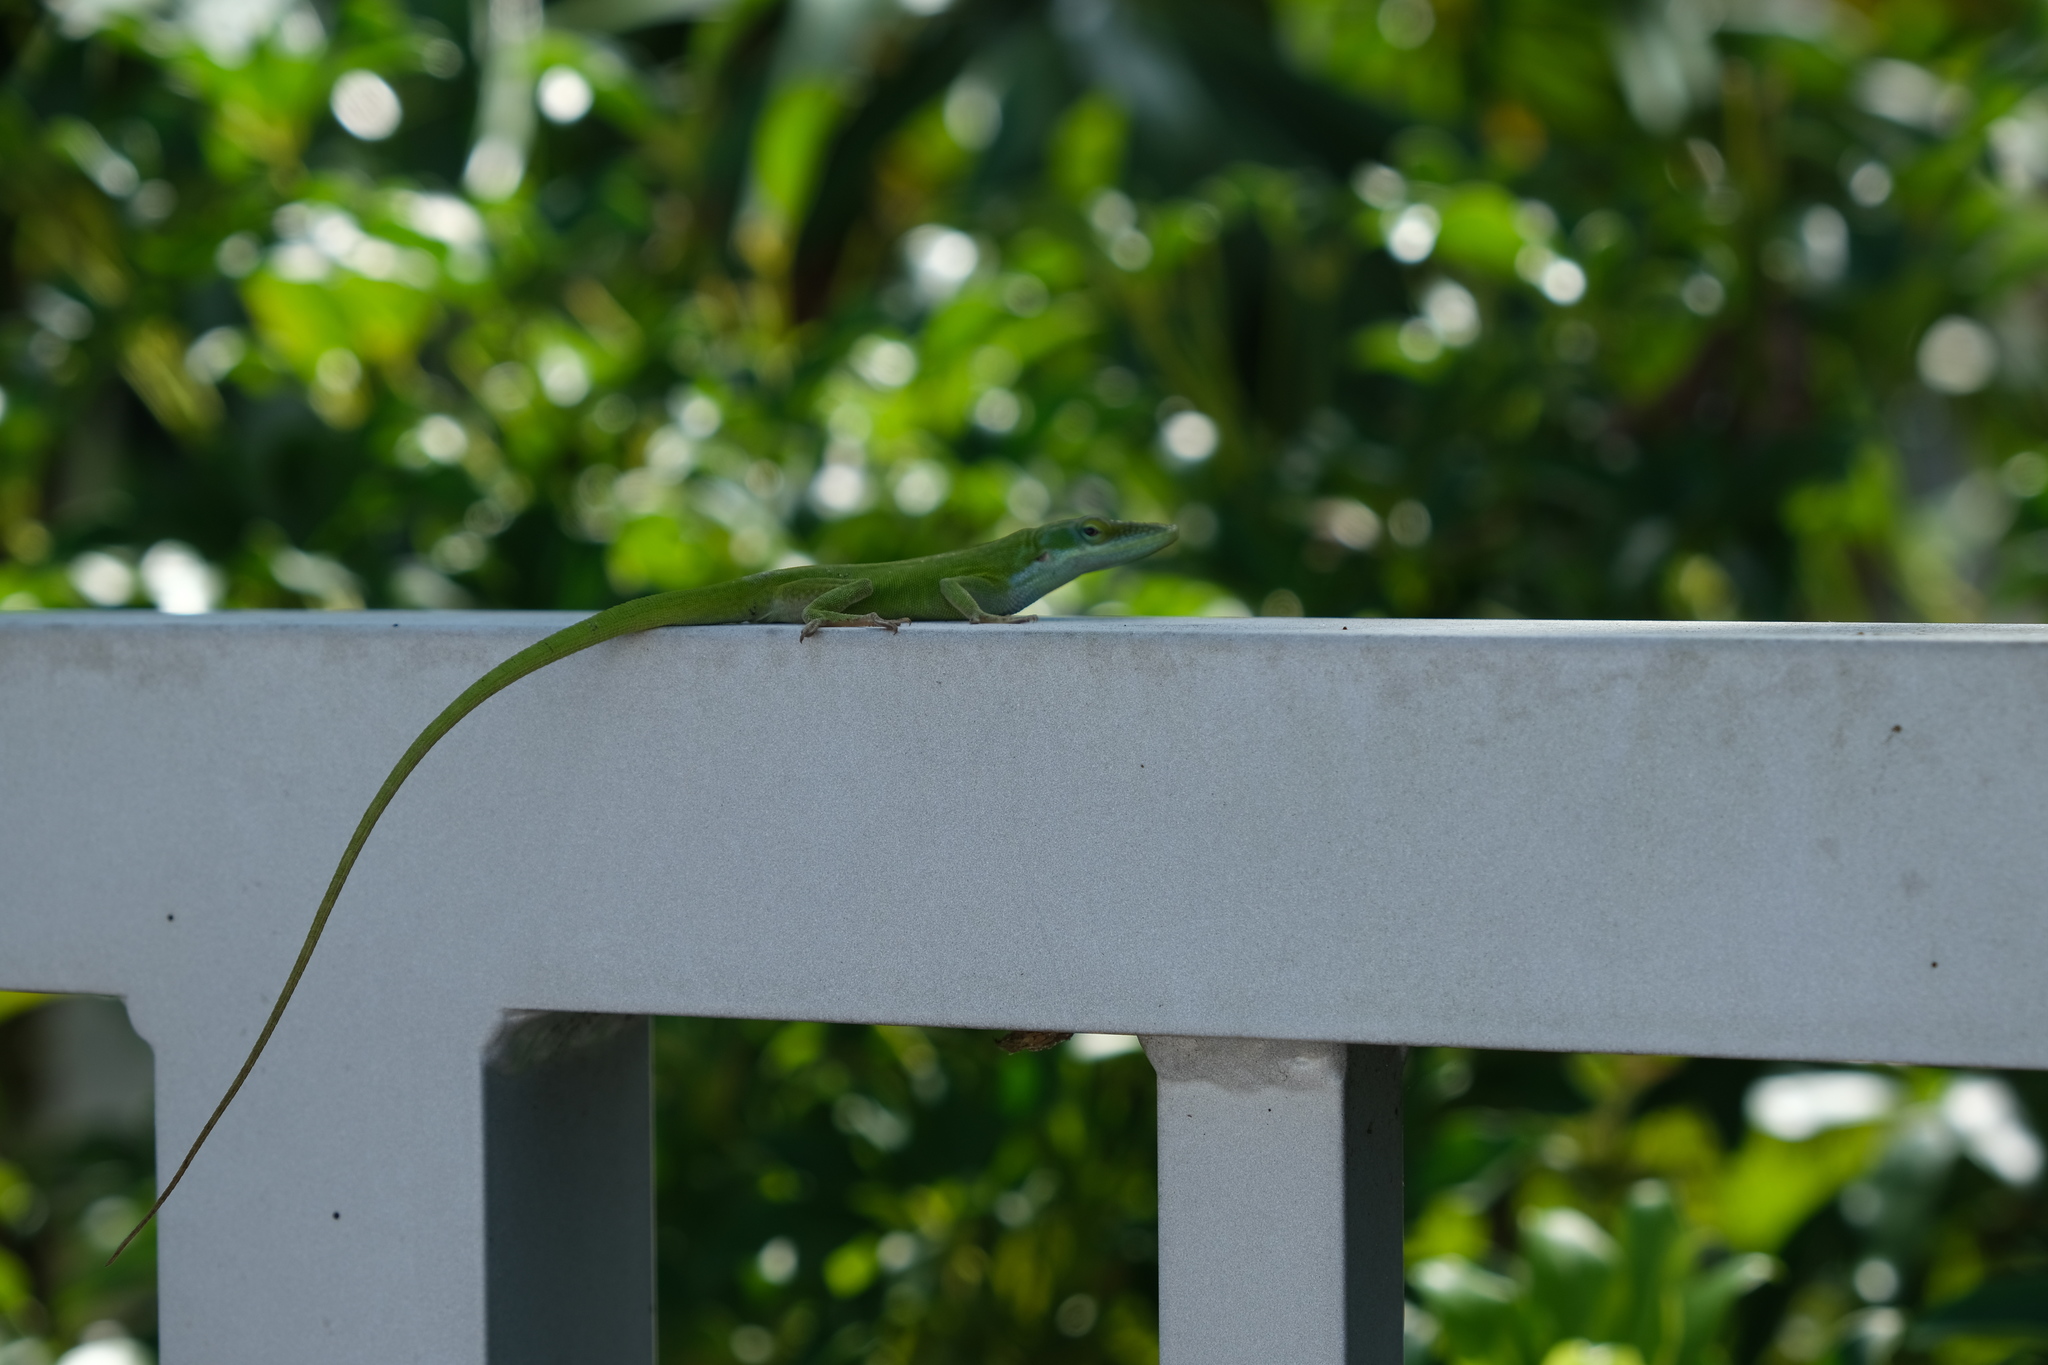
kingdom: Animalia
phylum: Chordata
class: Squamata
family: Dactyloidae
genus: Anolis
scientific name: Anolis allisoni
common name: Allison's anole
